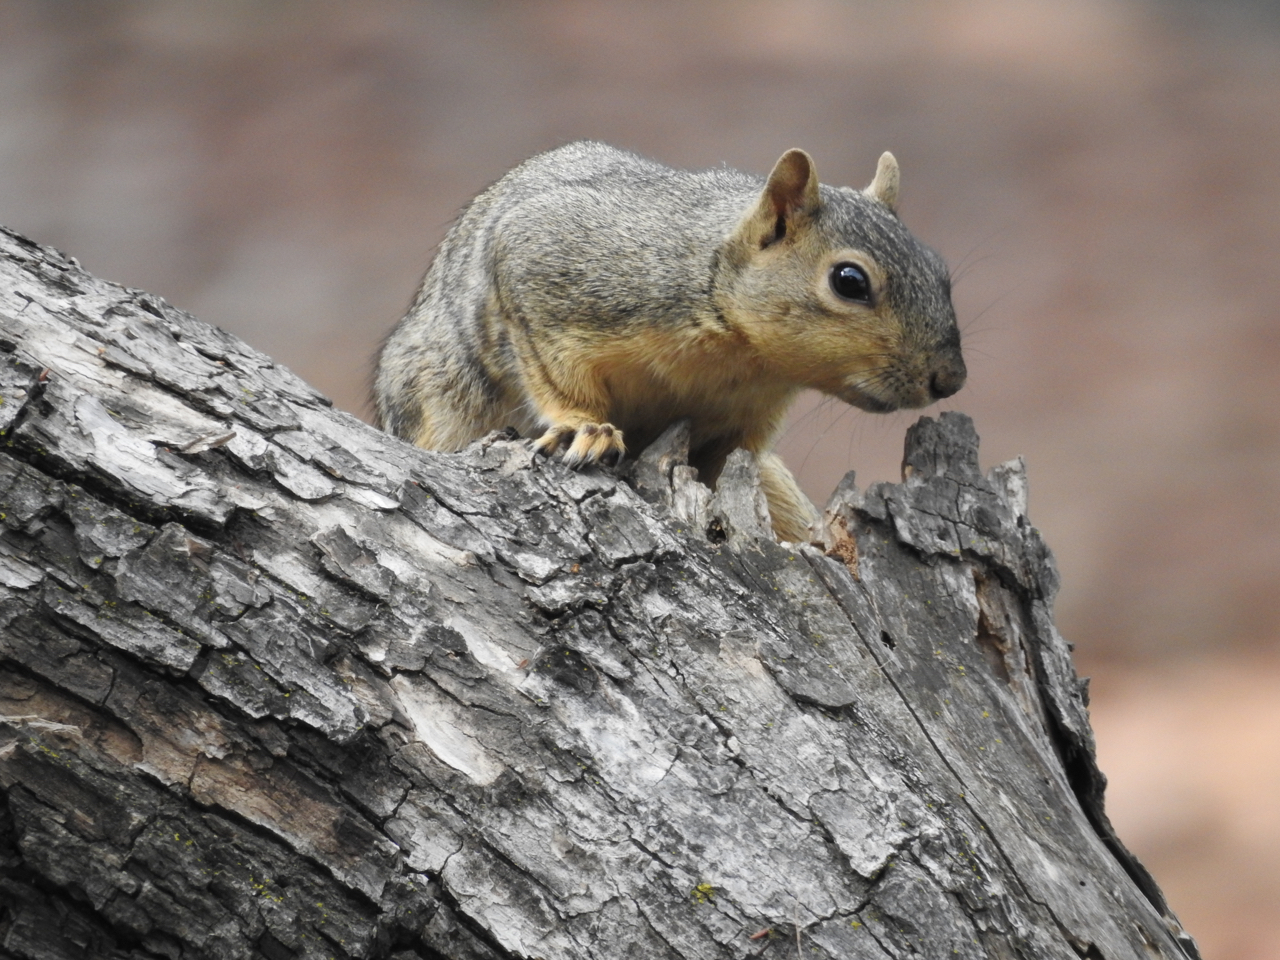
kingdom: Animalia
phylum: Chordata
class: Mammalia
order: Rodentia
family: Sciuridae
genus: Sciurus
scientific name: Sciurus niger
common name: Fox squirrel
